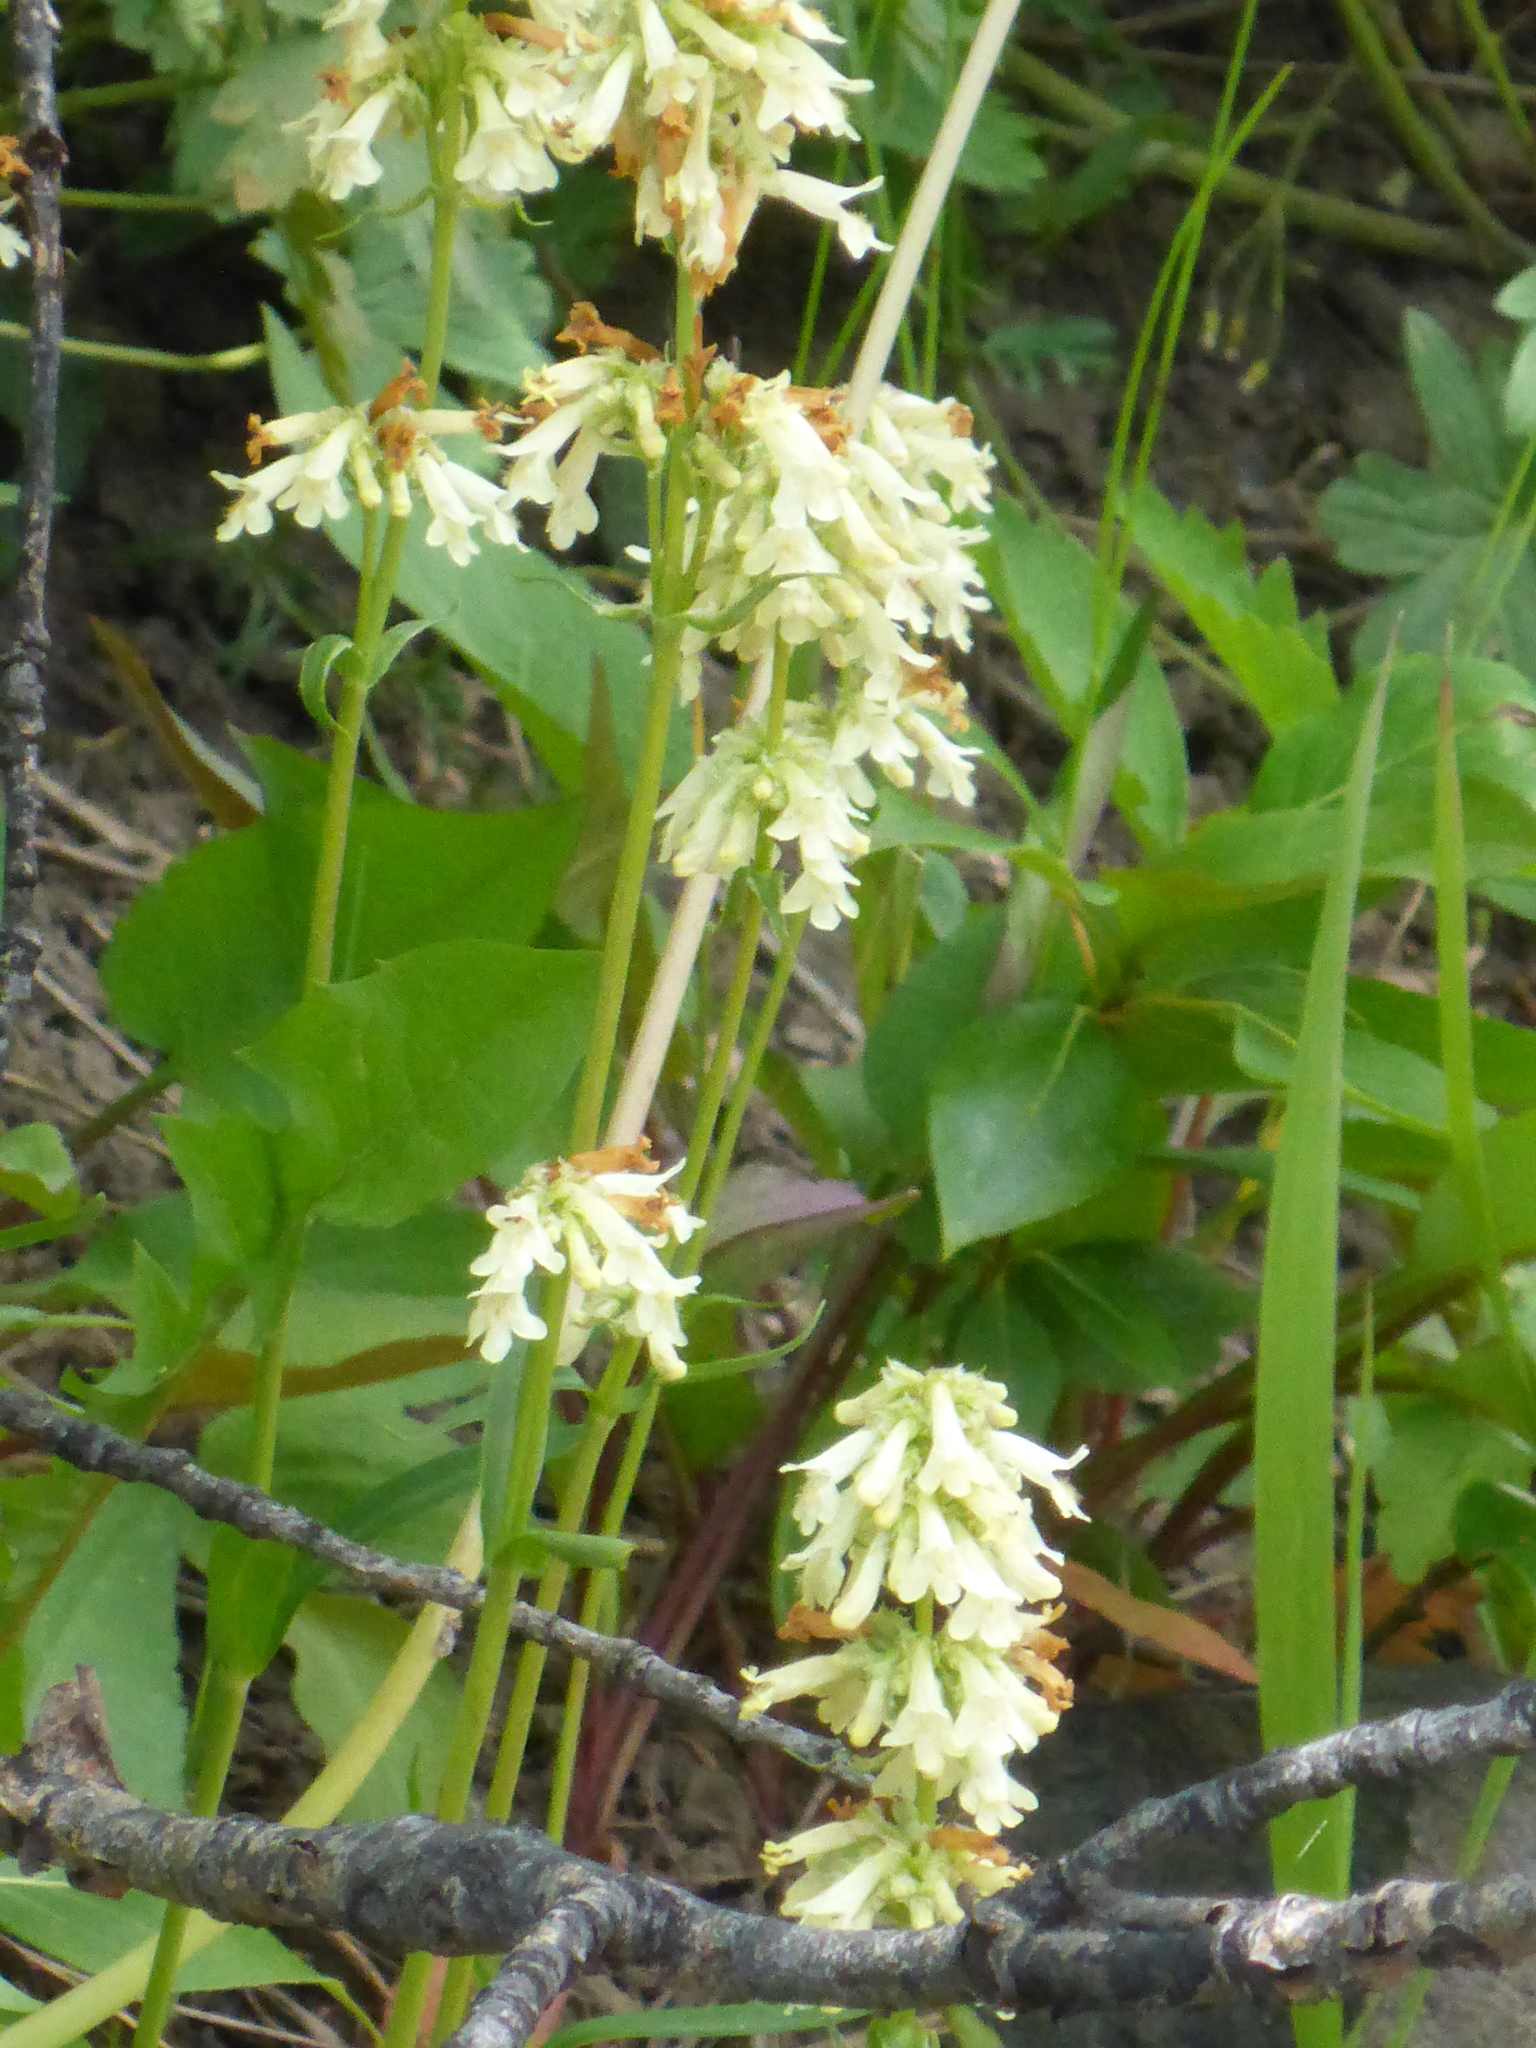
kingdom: Plantae
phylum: Tracheophyta
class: Magnoliopsida
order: Lamiales
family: Plantaginaceae
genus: Penstemon
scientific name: Penstemon confertus
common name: Lesser yellow beardtongue
